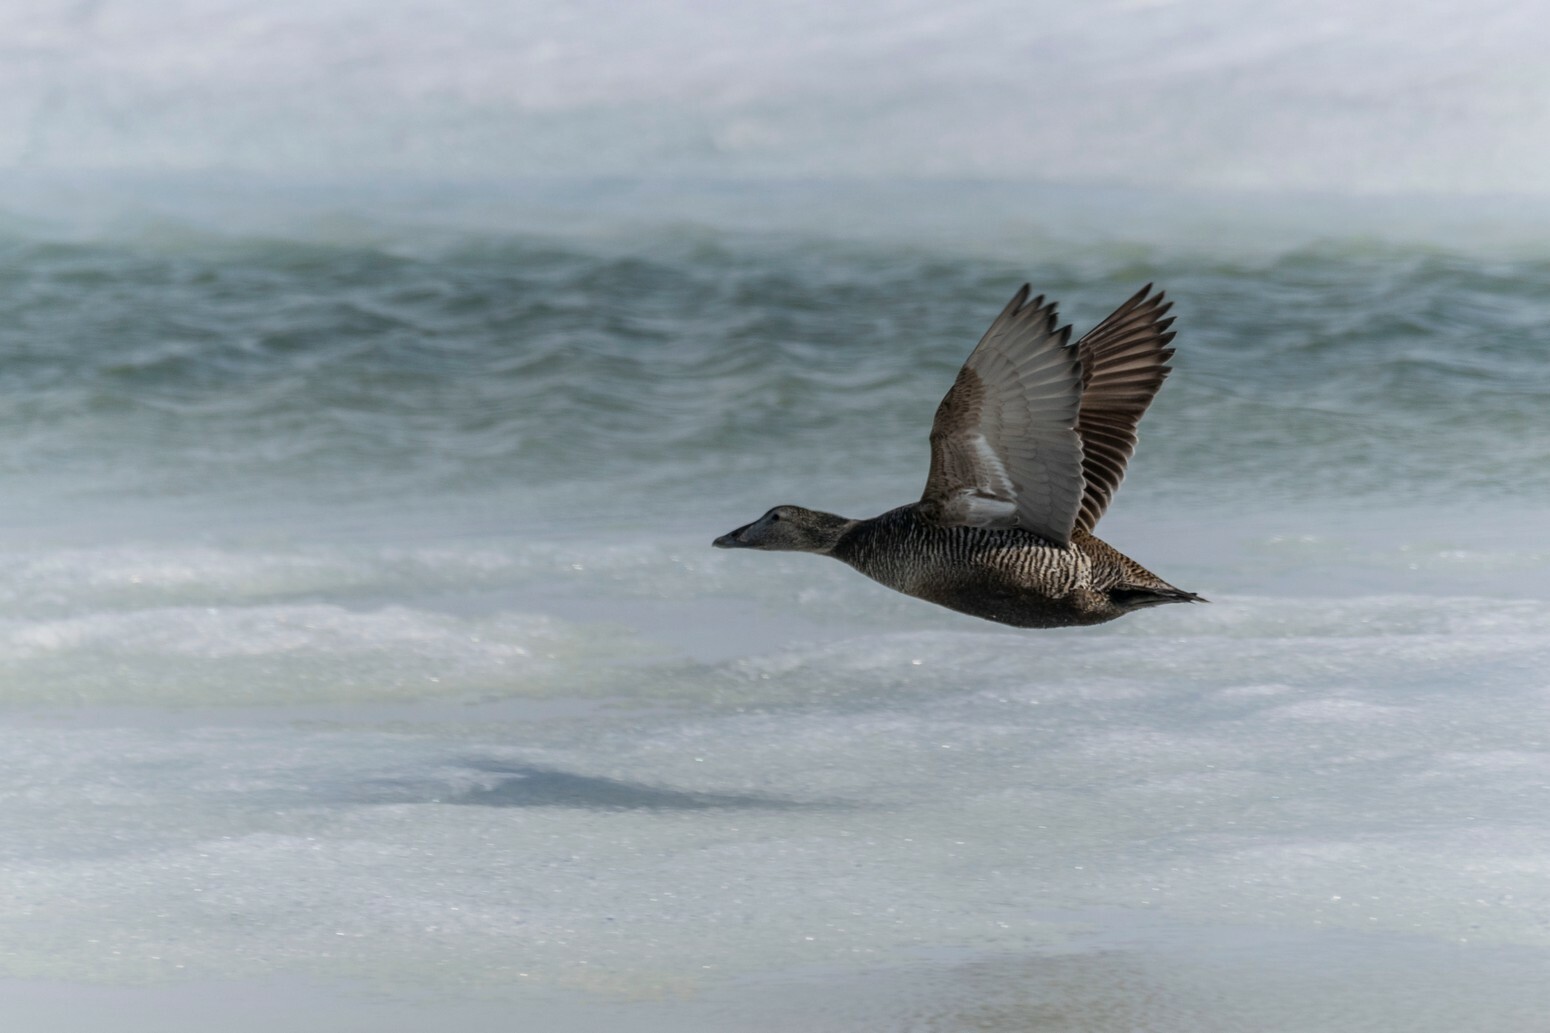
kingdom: Animalia
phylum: Chordata
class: Aves
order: Anseriformes
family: Anatidae
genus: Somateria
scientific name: Somateria mollissima
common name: Common eider
